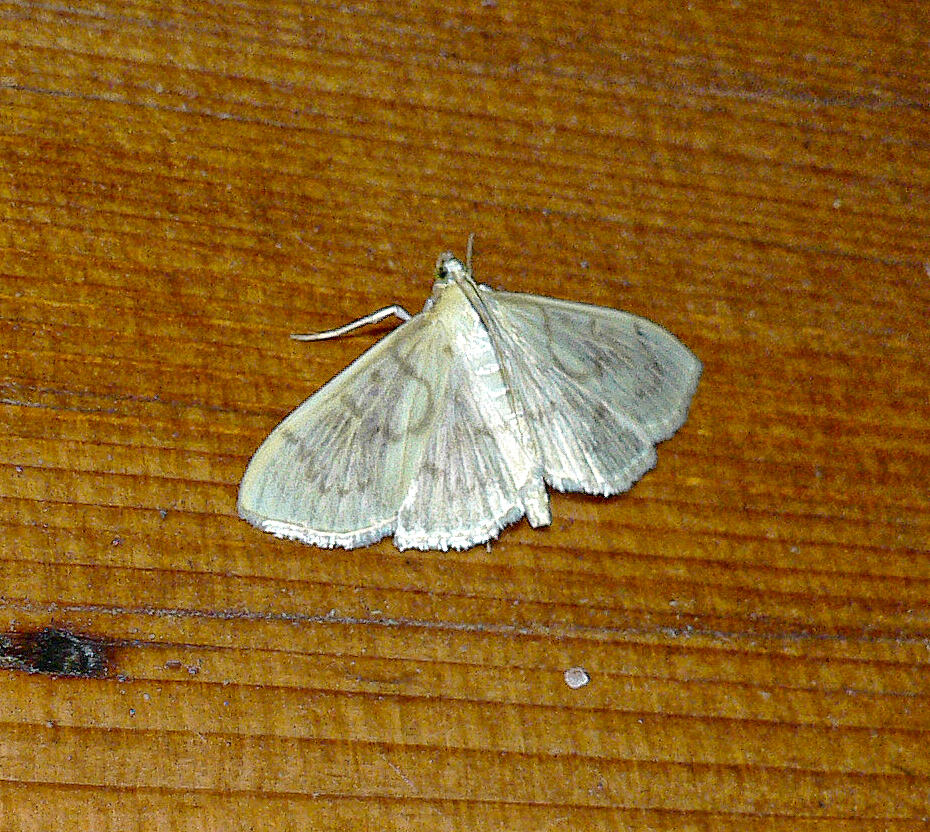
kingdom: Animalia
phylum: Arthropoda
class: Insecta
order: Lepidoptera
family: Crambidae
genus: Patania
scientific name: Patania ruralis
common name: Mother of pearl
